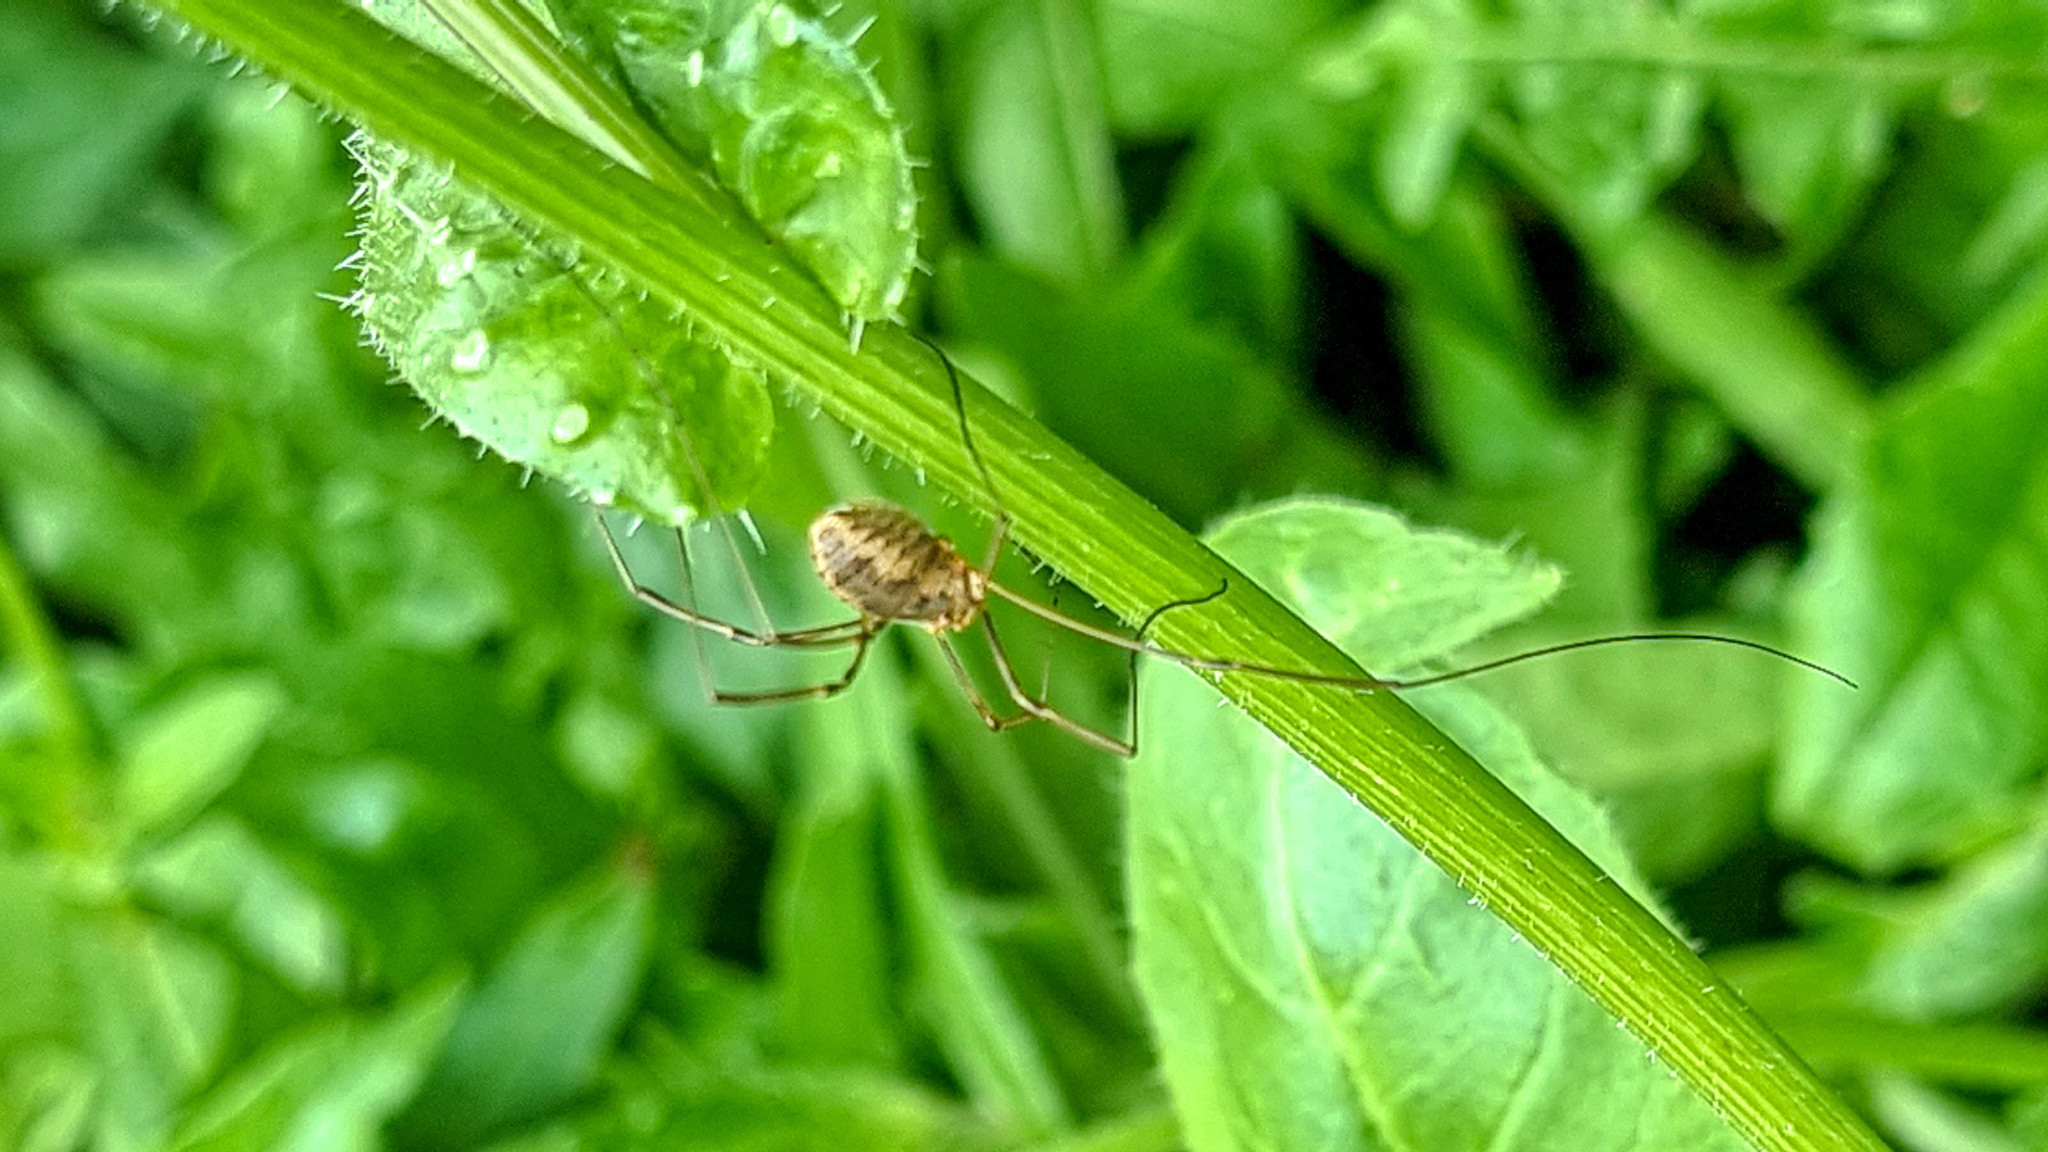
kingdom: Animalia
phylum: Arthropoda
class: Arachnida
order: Opiliones
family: Phalangiidae
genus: Phalangium
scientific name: Phalangium opilio
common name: Daddy longleg
